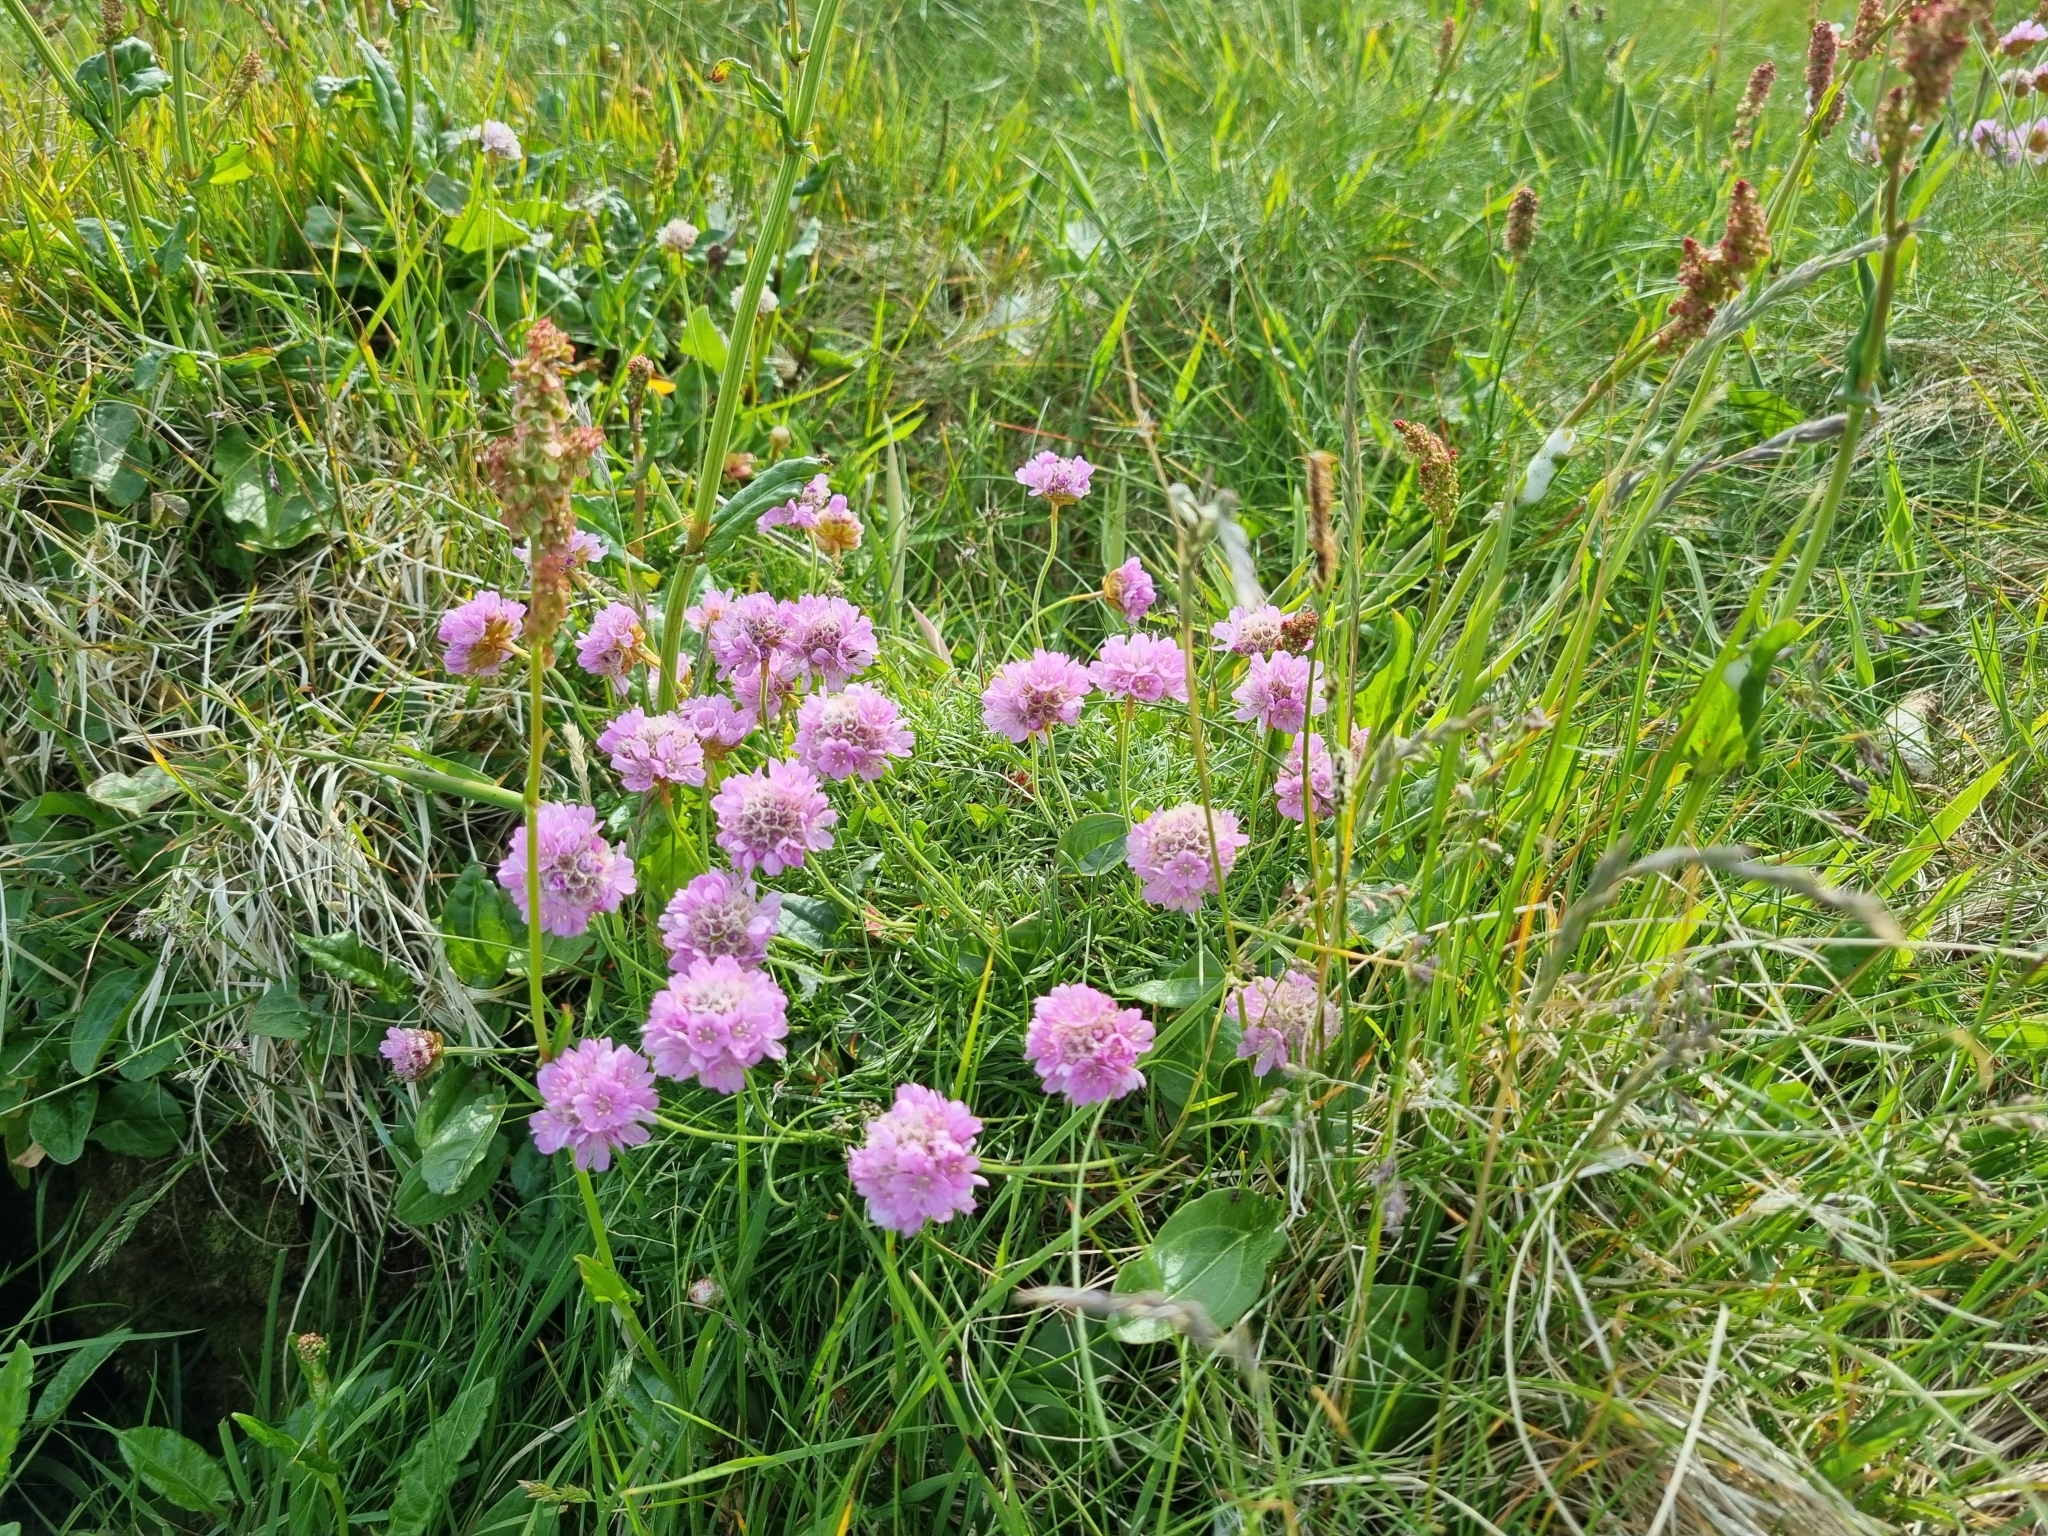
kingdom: Plantae
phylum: Tracheophyta
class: Magnoliopsida
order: Caryophyllales
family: Plumbaginaceae
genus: Armeria
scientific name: Armeria maritima
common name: Thrift
